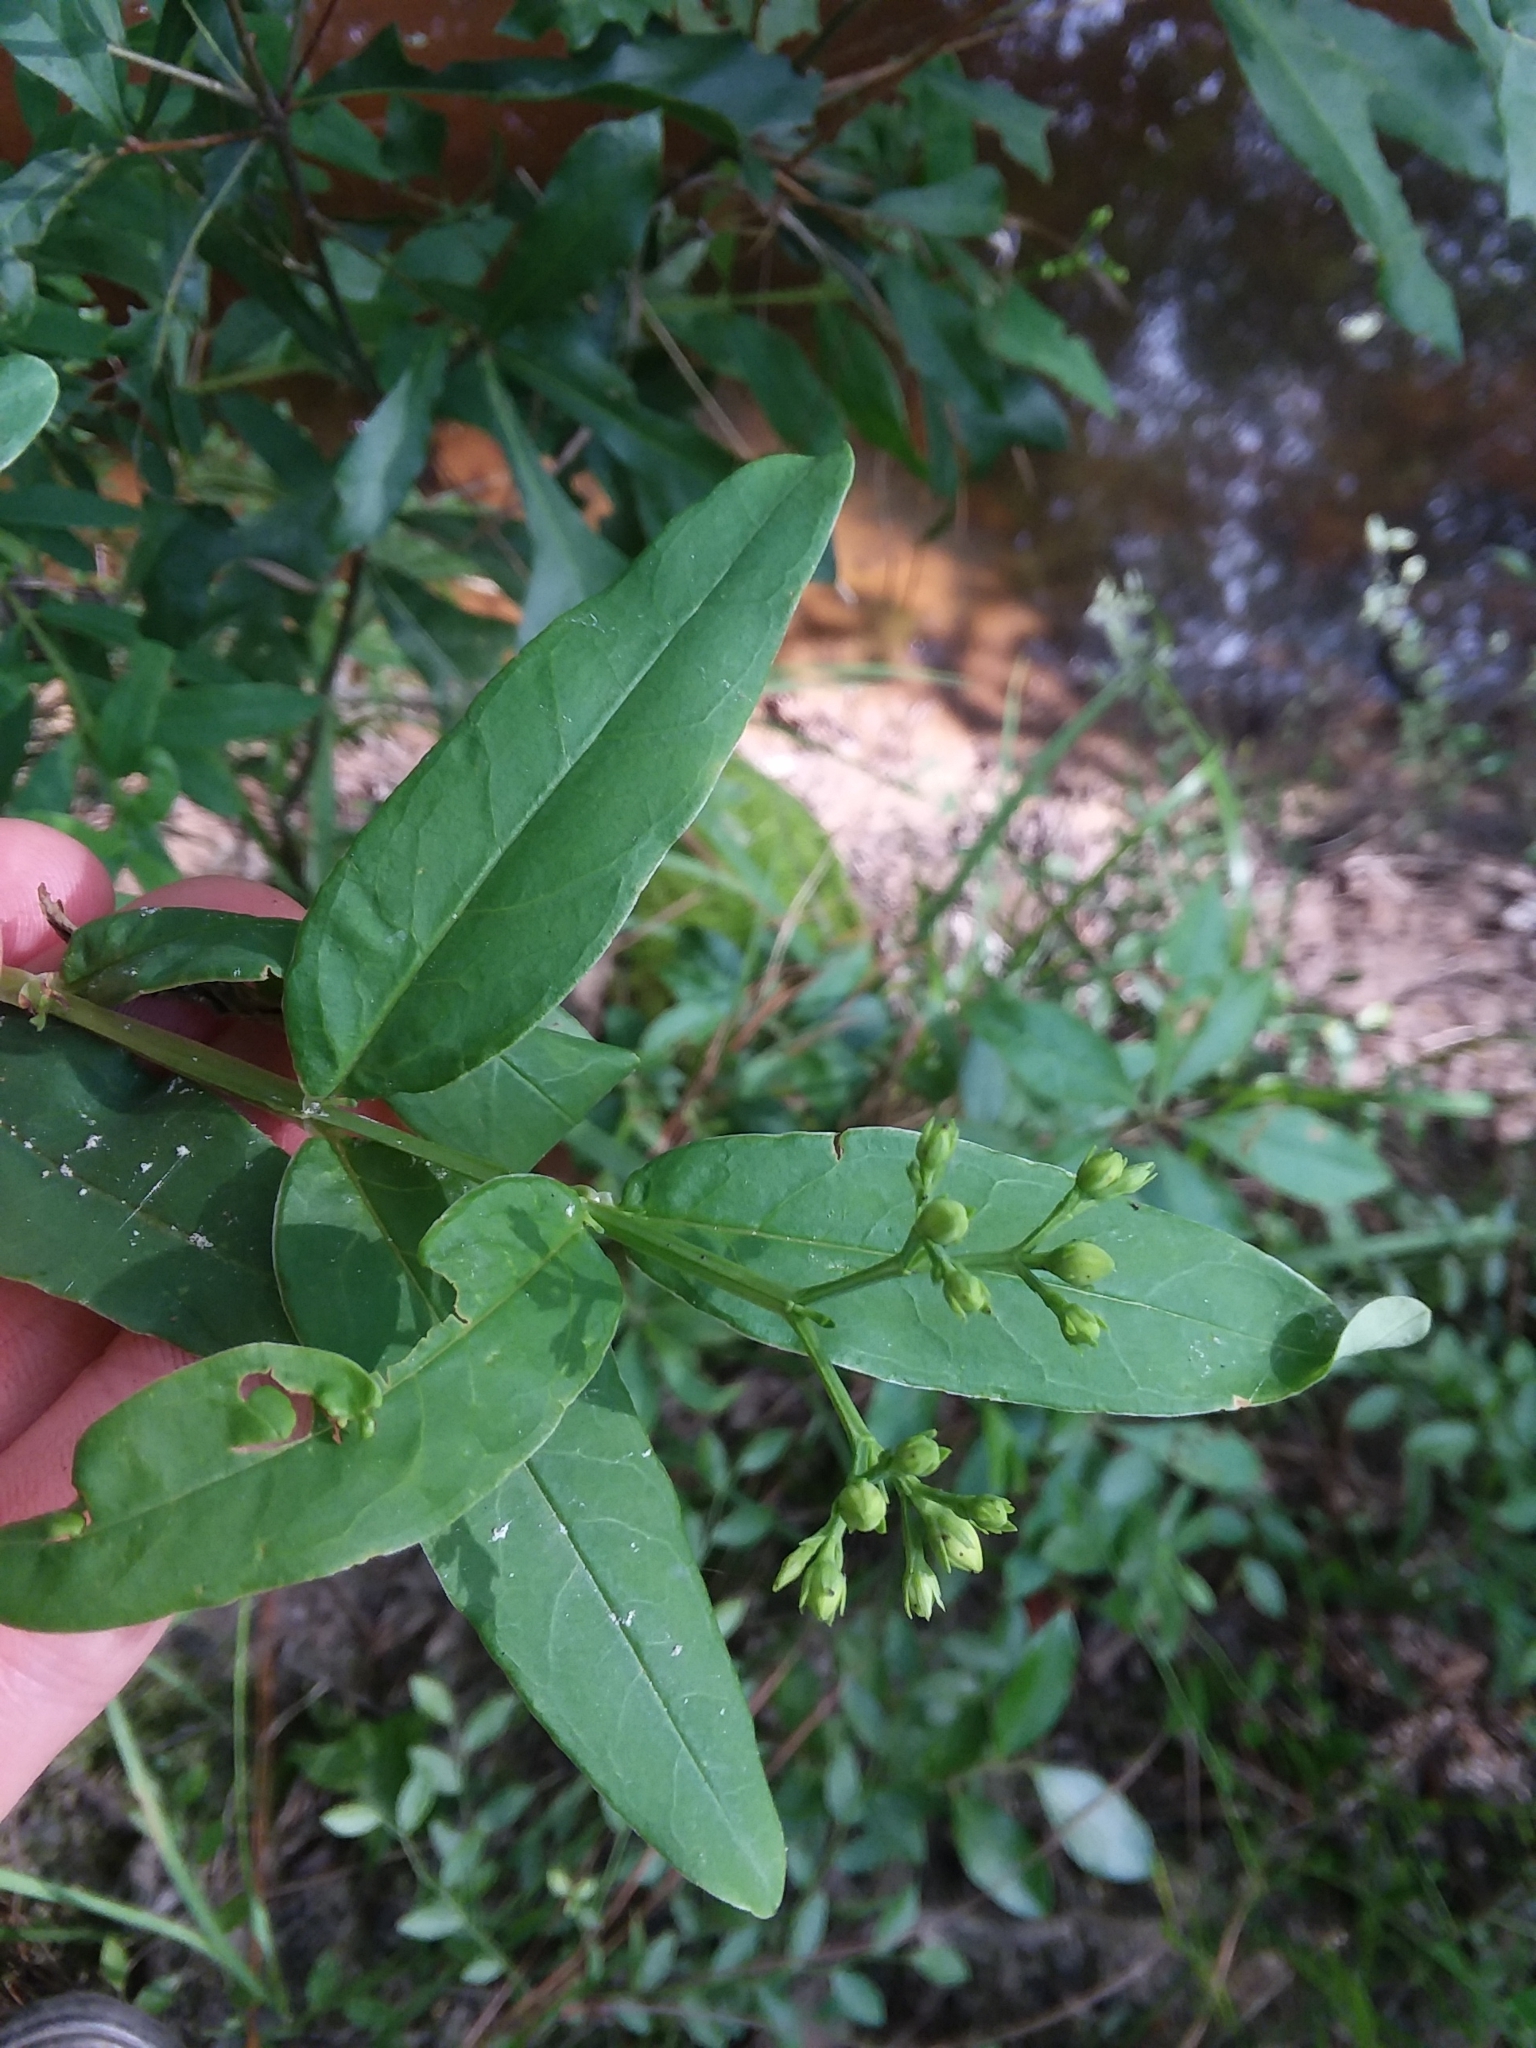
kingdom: Plantae
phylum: Tracheophyta
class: Magnoliopsida
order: Malpighiales
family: Hypericaceae
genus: Hypericum
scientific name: Hypericum nudiflorum
